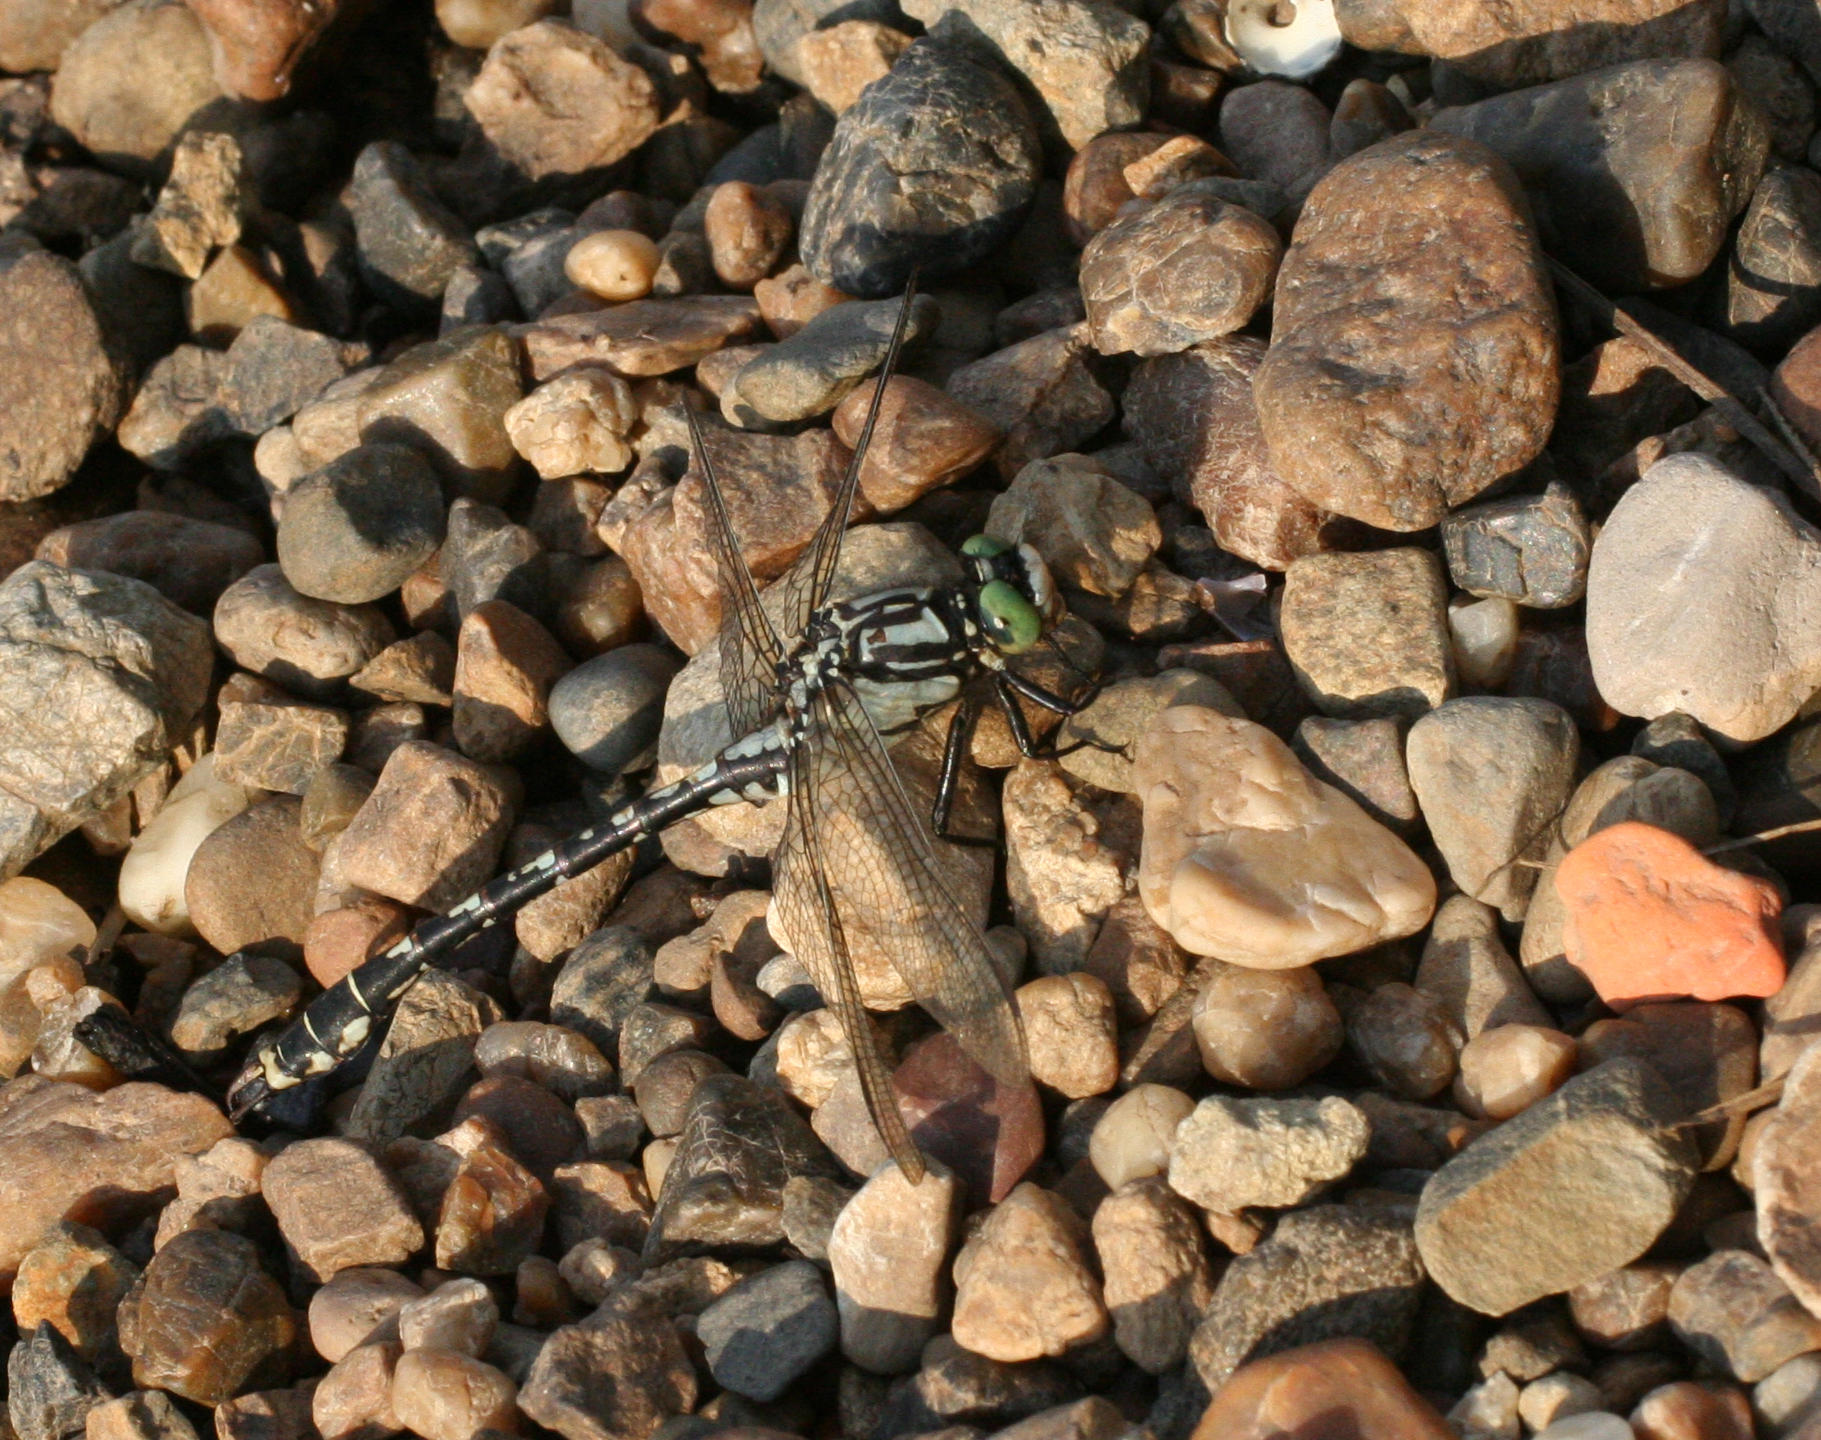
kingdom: Animalia
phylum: Arthropoda
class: Insecta
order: Odonata
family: Gomphidae
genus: Nihonogomphus
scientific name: Nihonogomphus ruptus
